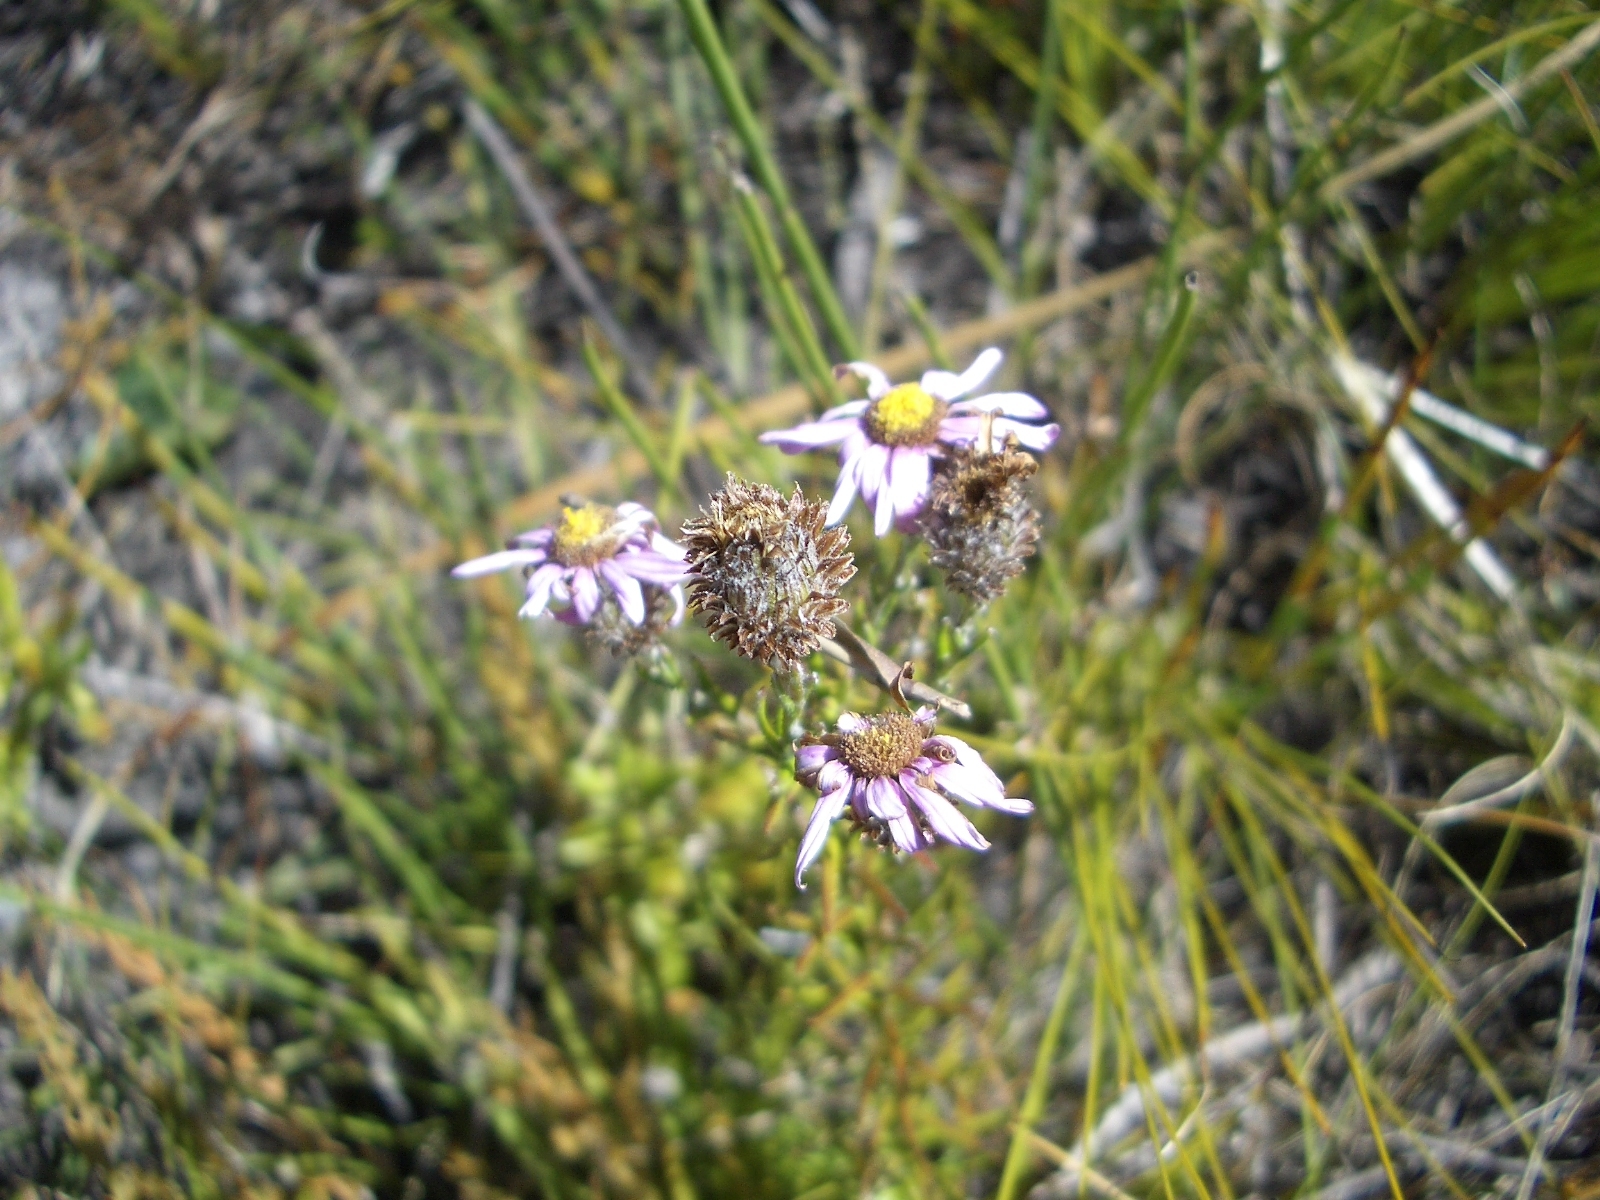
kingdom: Plantae
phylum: Tracheophyta
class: Magnoliopsida
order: Asterales
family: Asteraceae
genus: Athrixia
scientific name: Athrixia heterophylla
